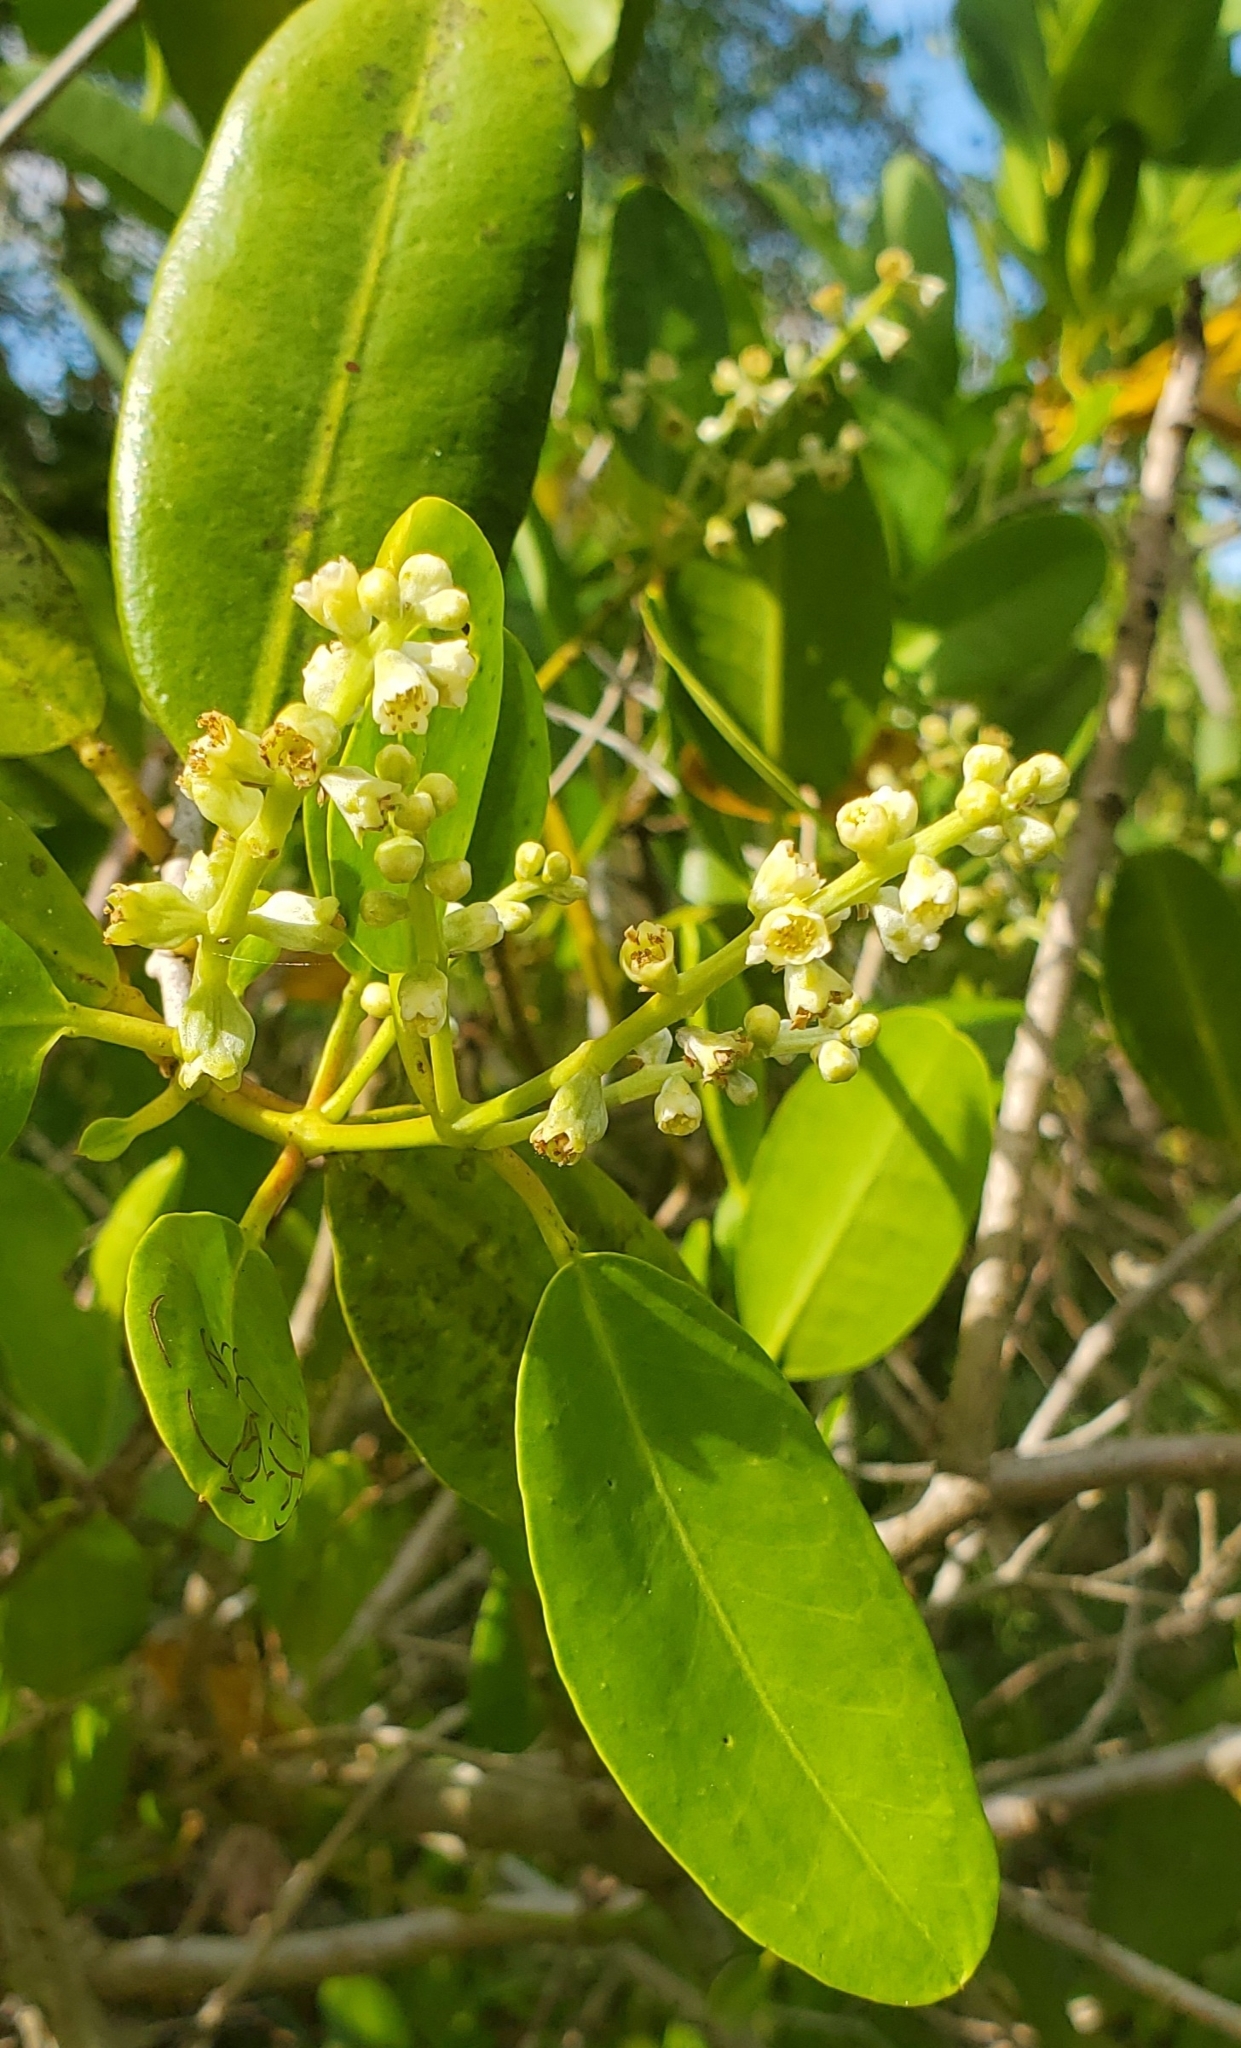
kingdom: Plantae
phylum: Tracheophyta
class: Magnoliopsida
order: Myrtales
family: Combretaceae
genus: Laguncularia
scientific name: Laguncularia racemosa
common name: White mangrove
